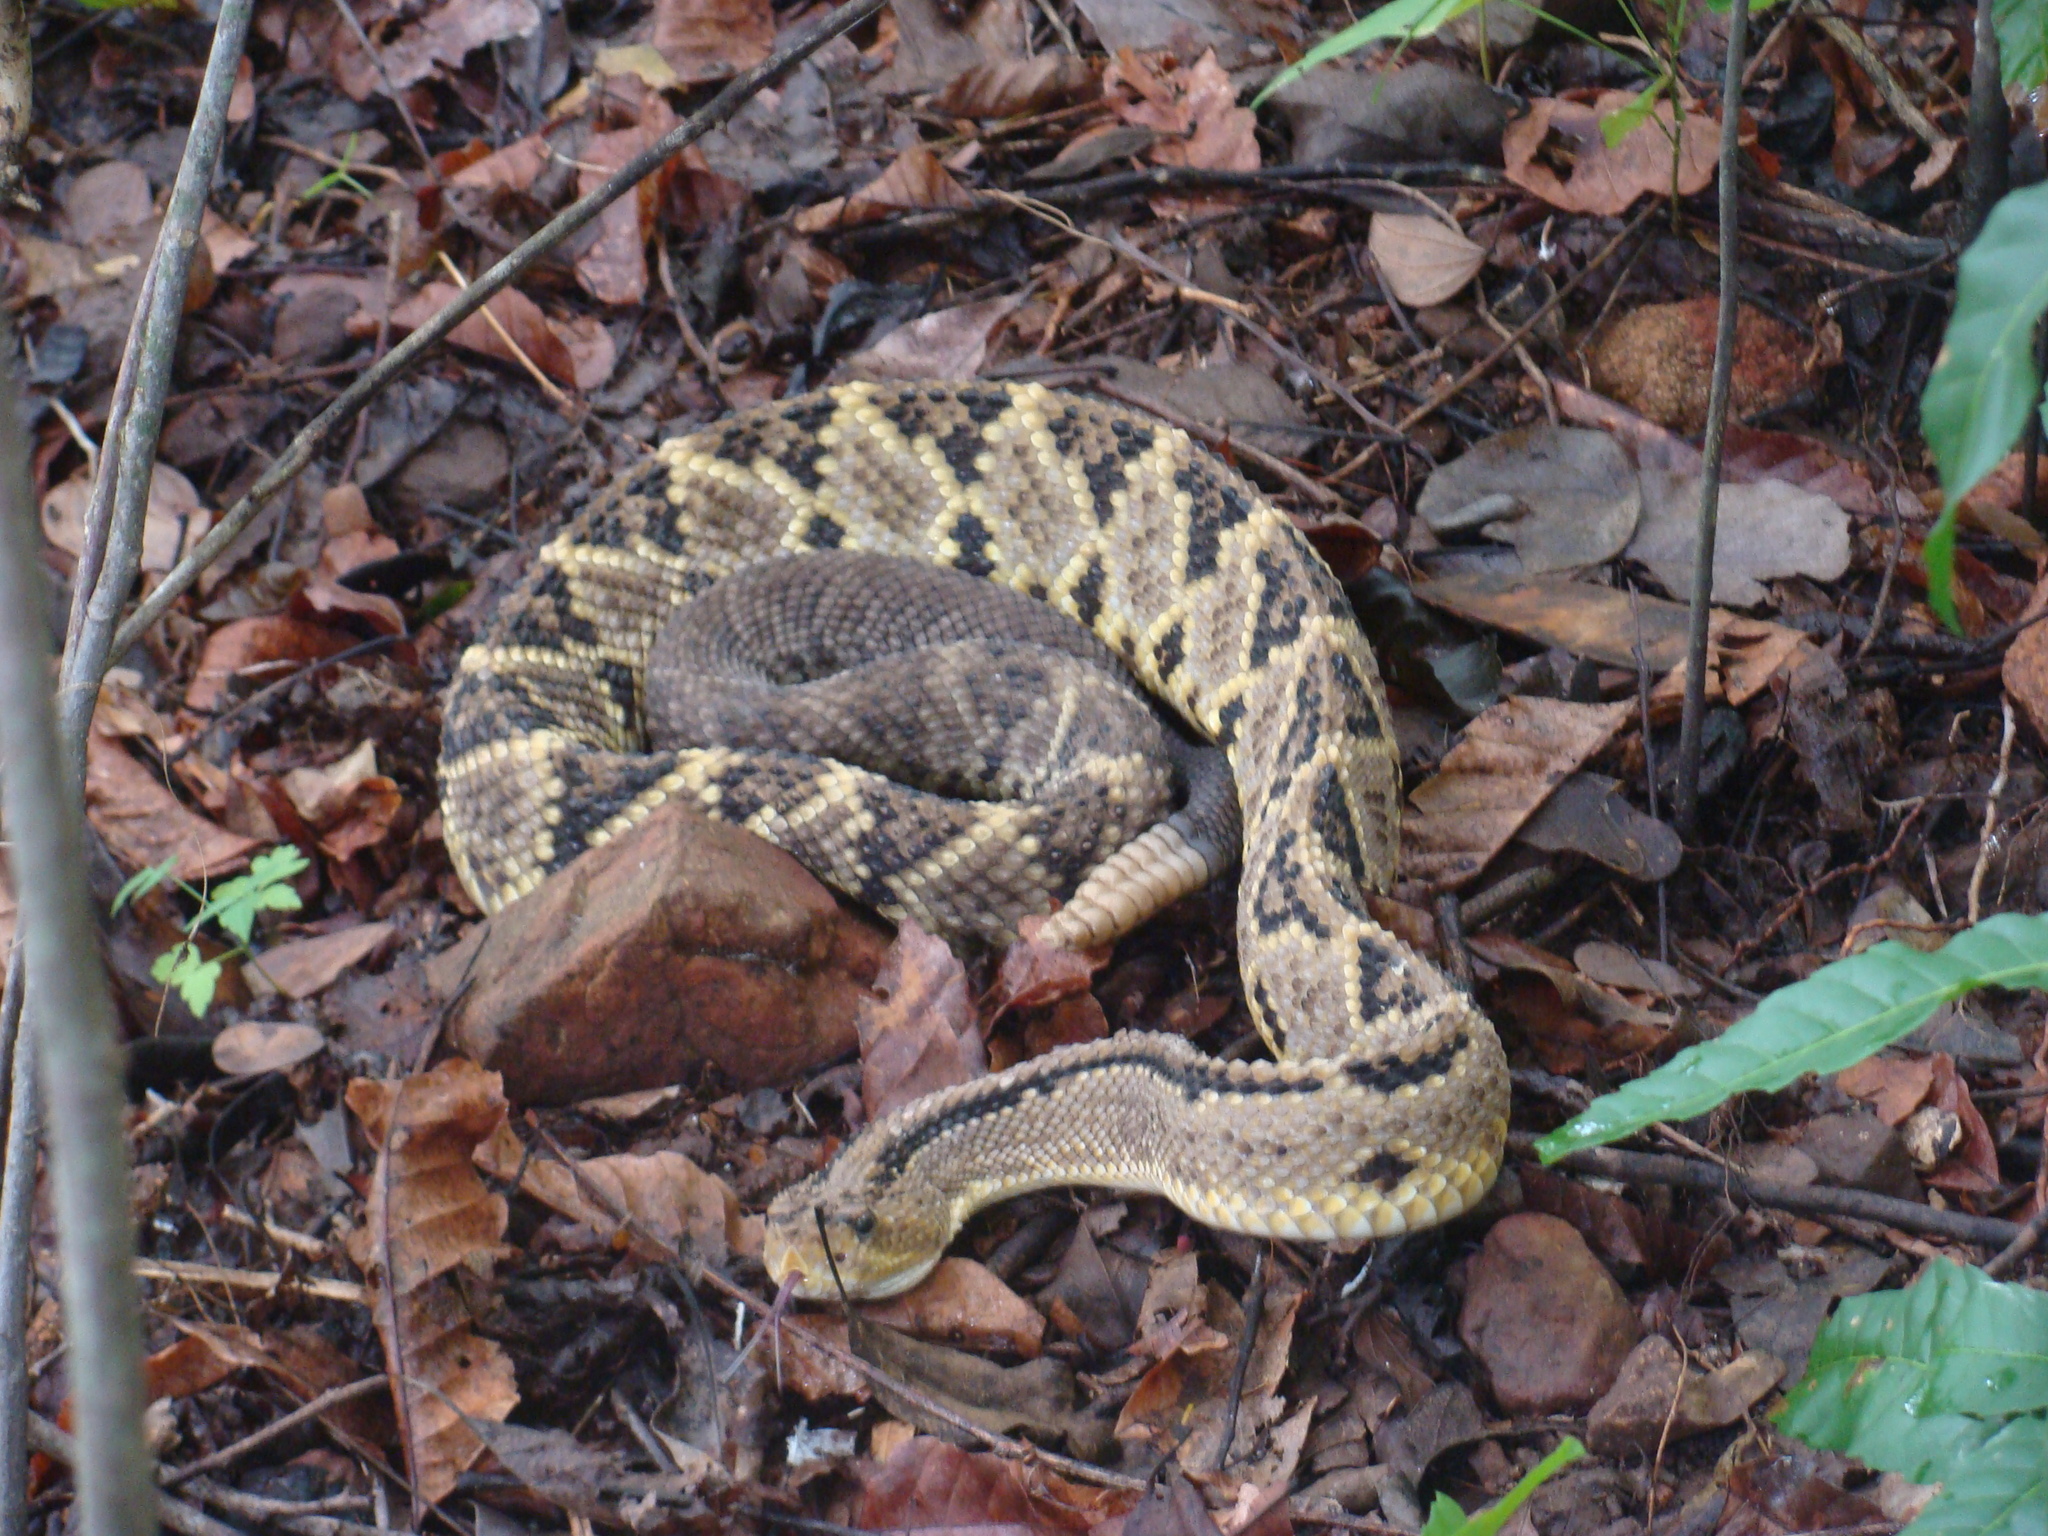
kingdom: Animalia
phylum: Chordata
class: Squamata
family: Viperidae
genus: Crotalus
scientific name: Crotalus culminatus
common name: Northwestern neotropical rattlesnake
